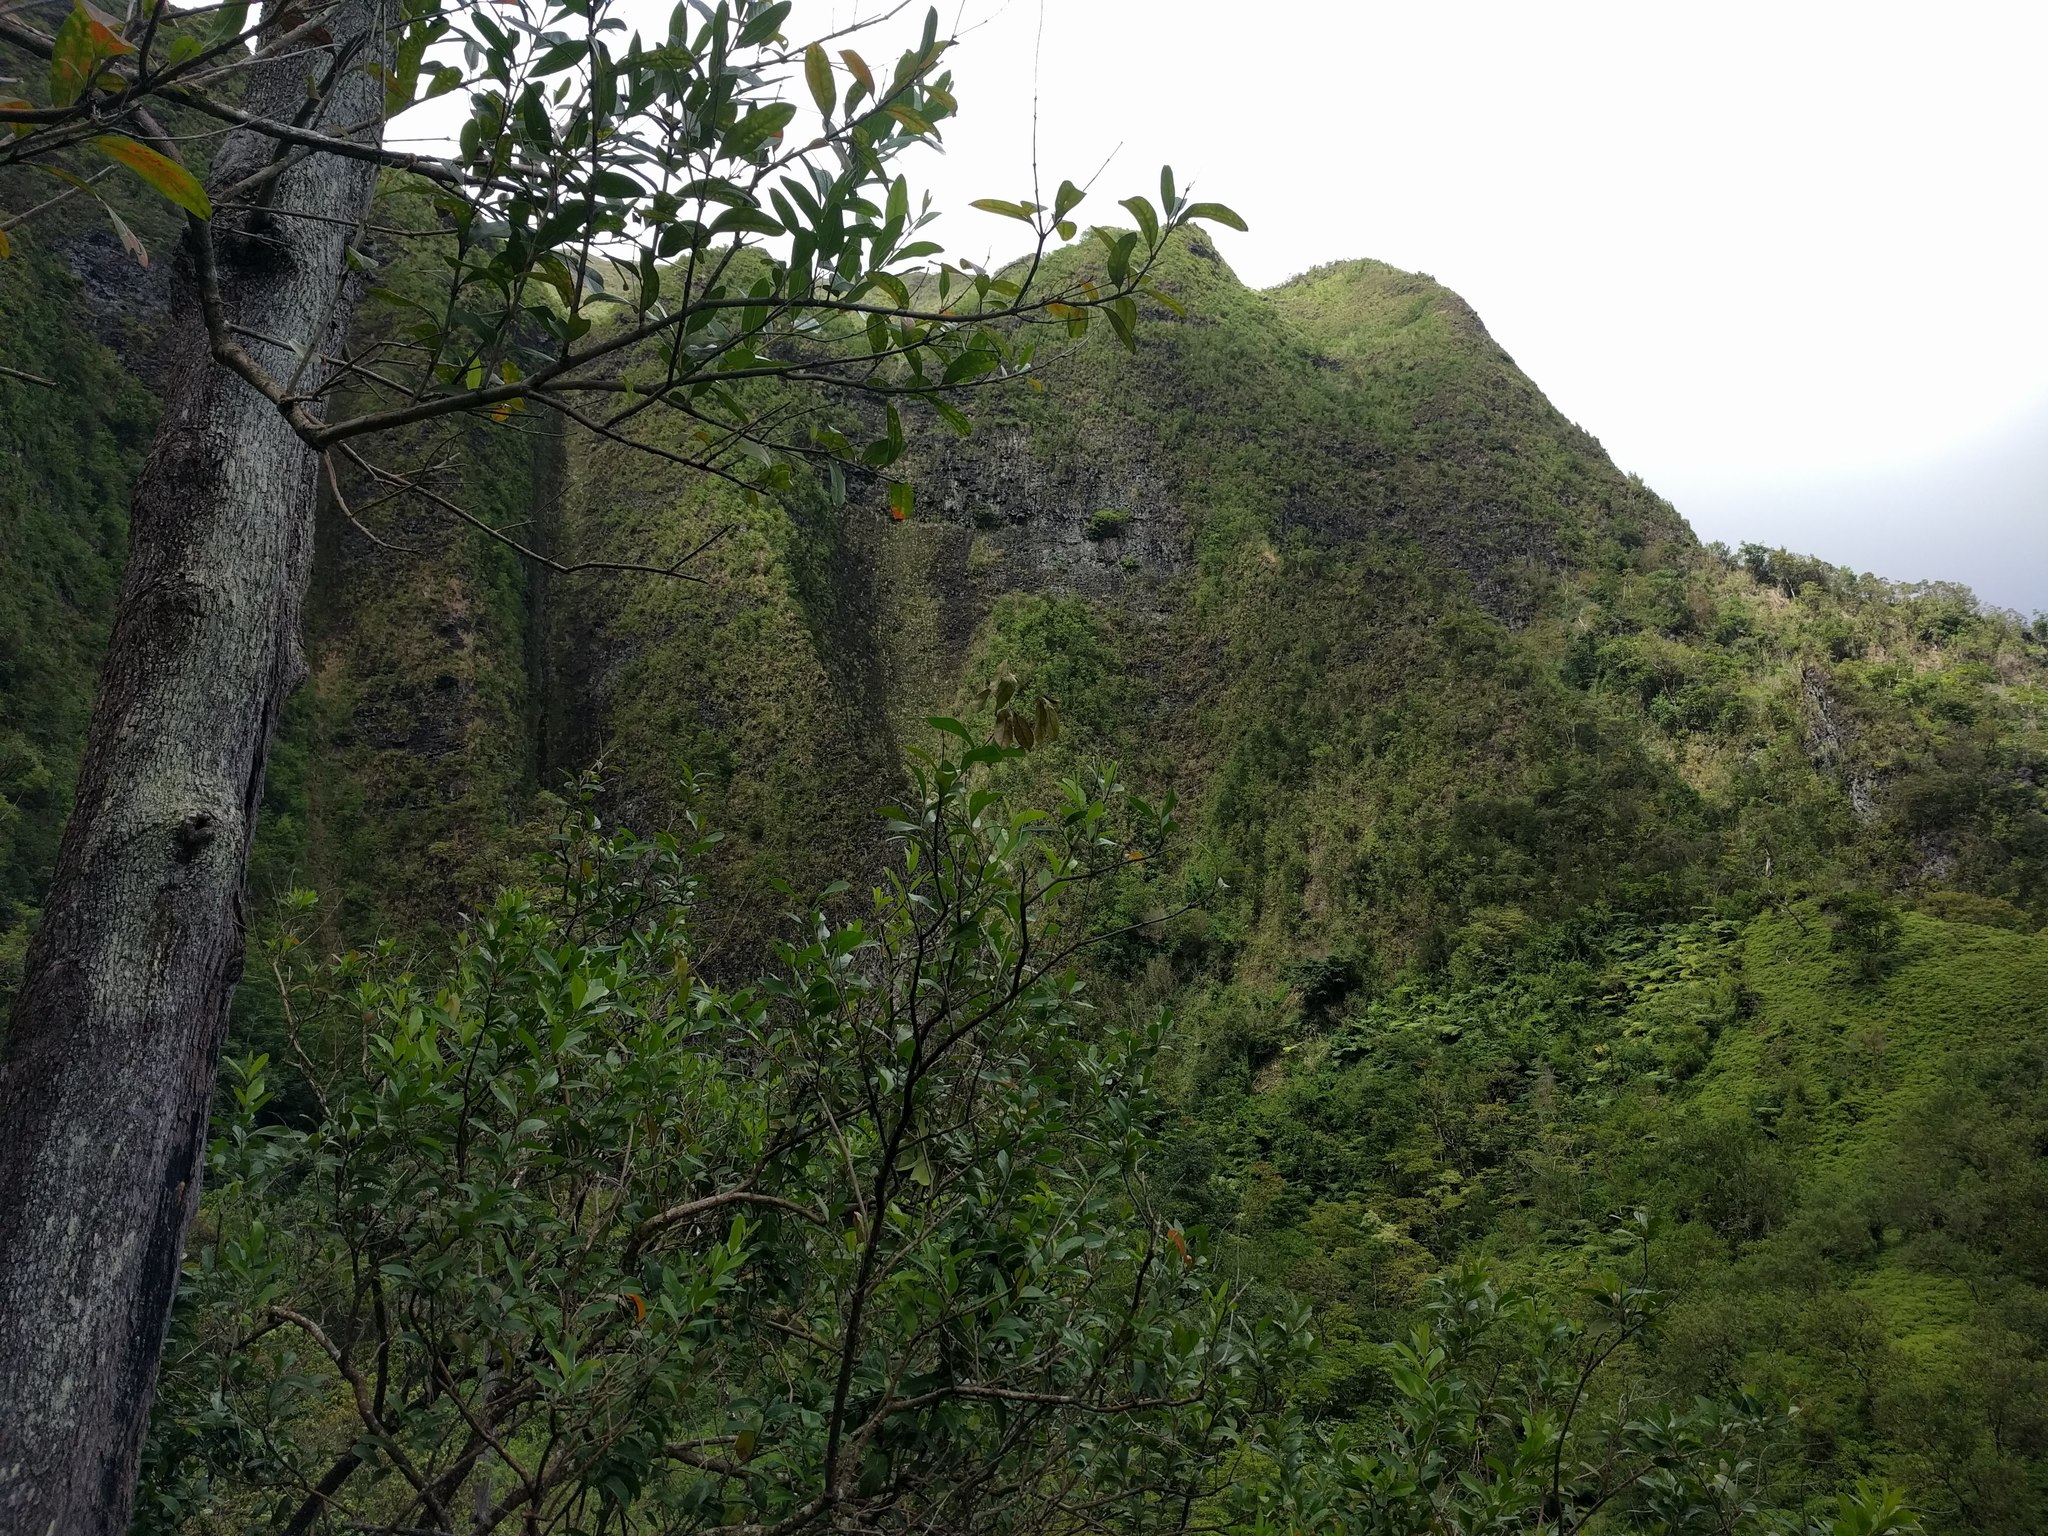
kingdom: Plantae
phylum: Tracheophyta
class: Magnoliopsida
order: Lamiales
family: Verbenaceae
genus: Citharexylum
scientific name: Citharexylum caudatum
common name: Fiddlewood
